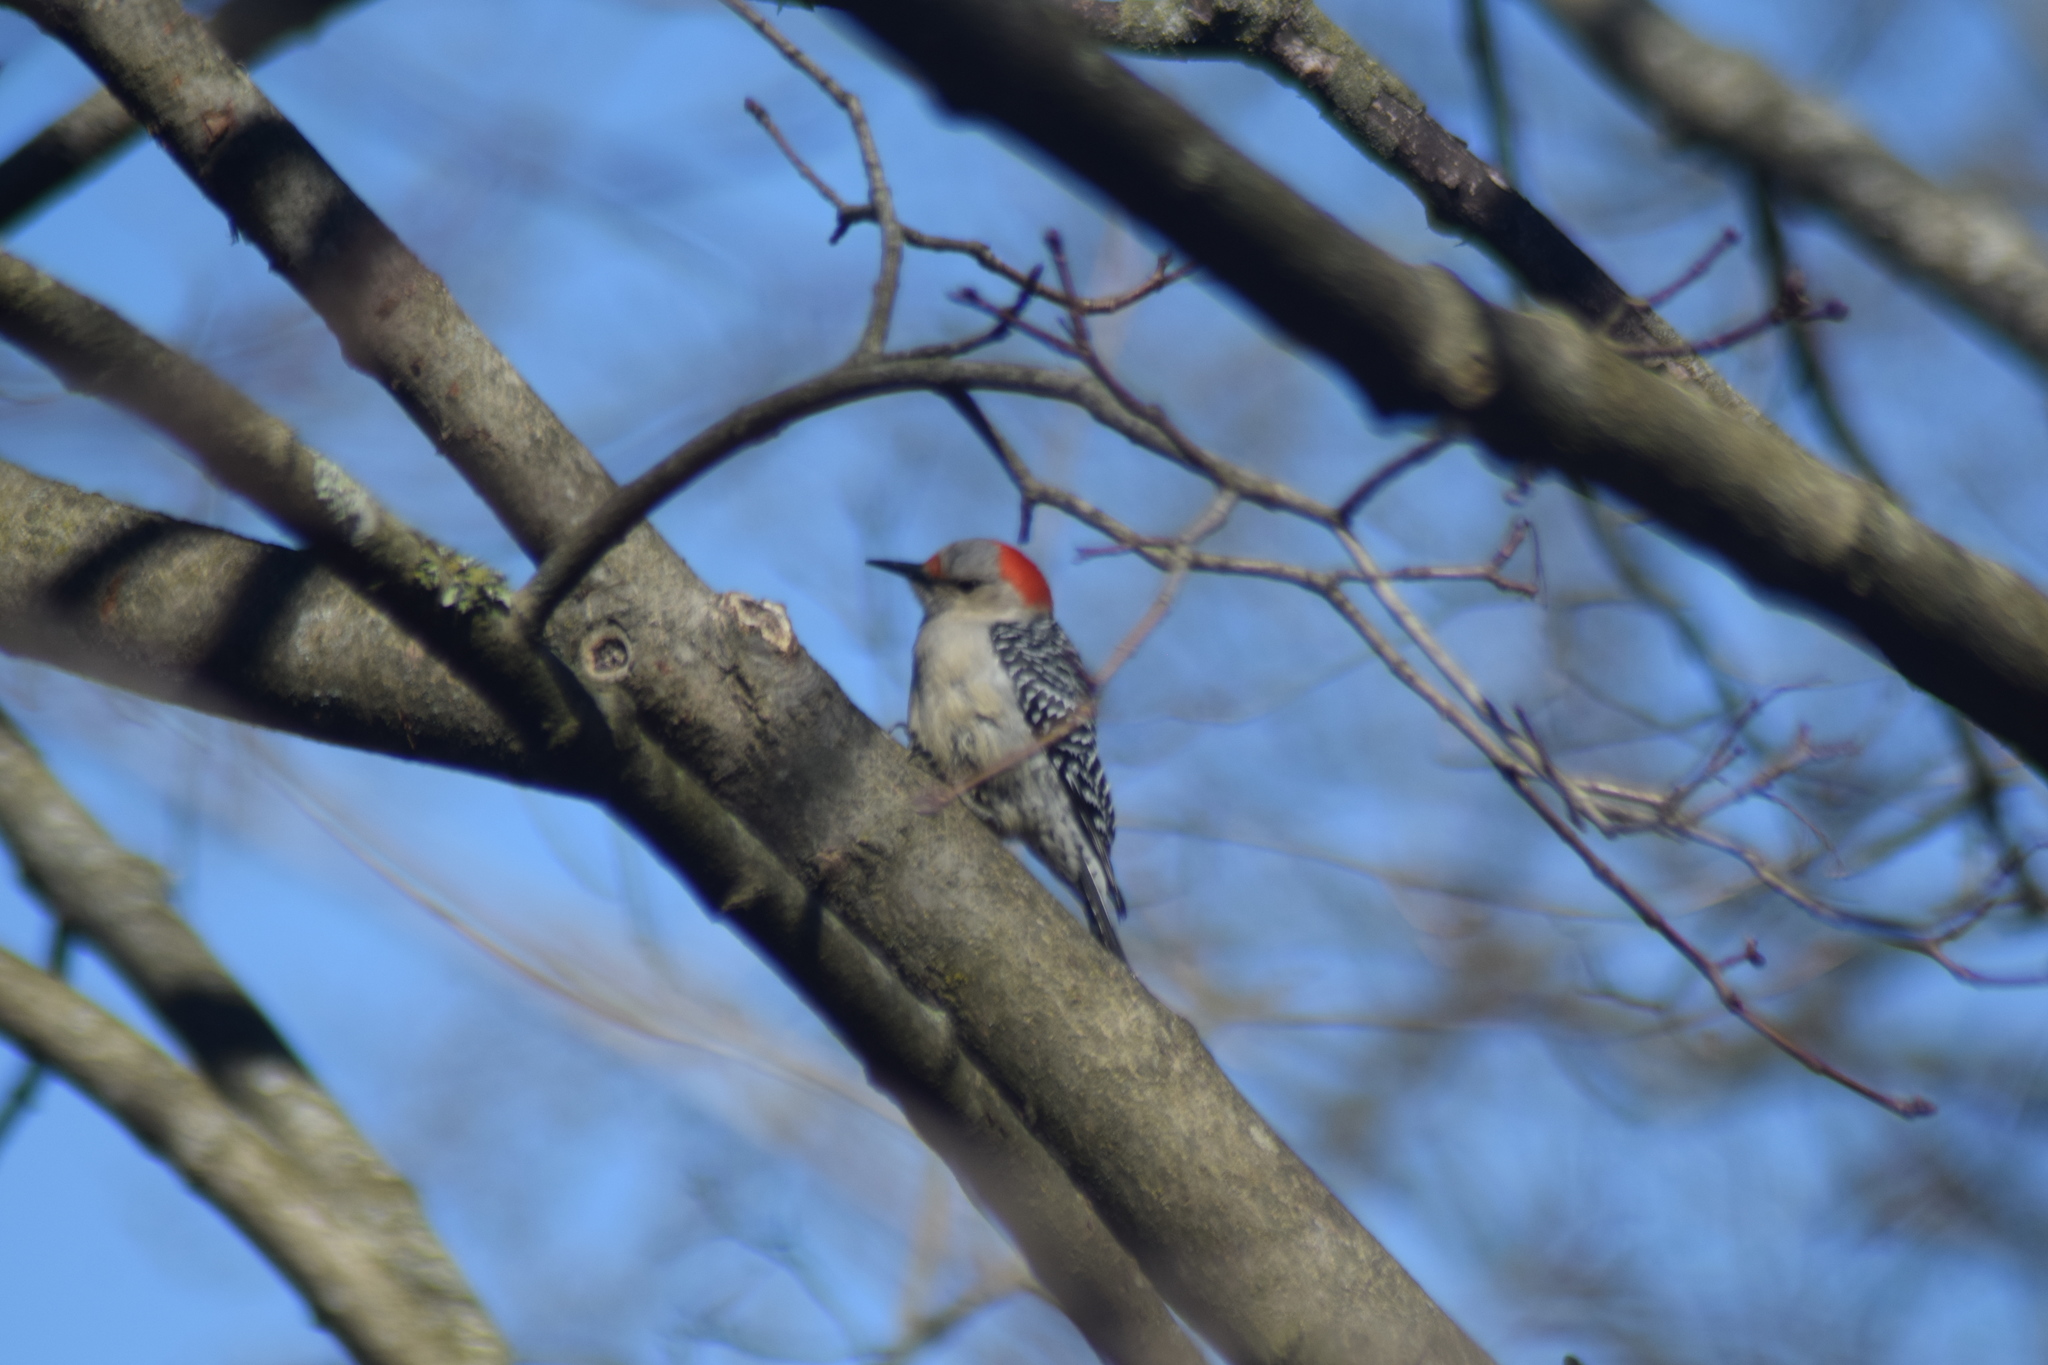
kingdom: Animalia
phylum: Chordata
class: Aves
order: Piciformes
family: Picidae
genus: Melanerpes
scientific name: Melanerpes carolinus
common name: Red-bellied woodpecker
